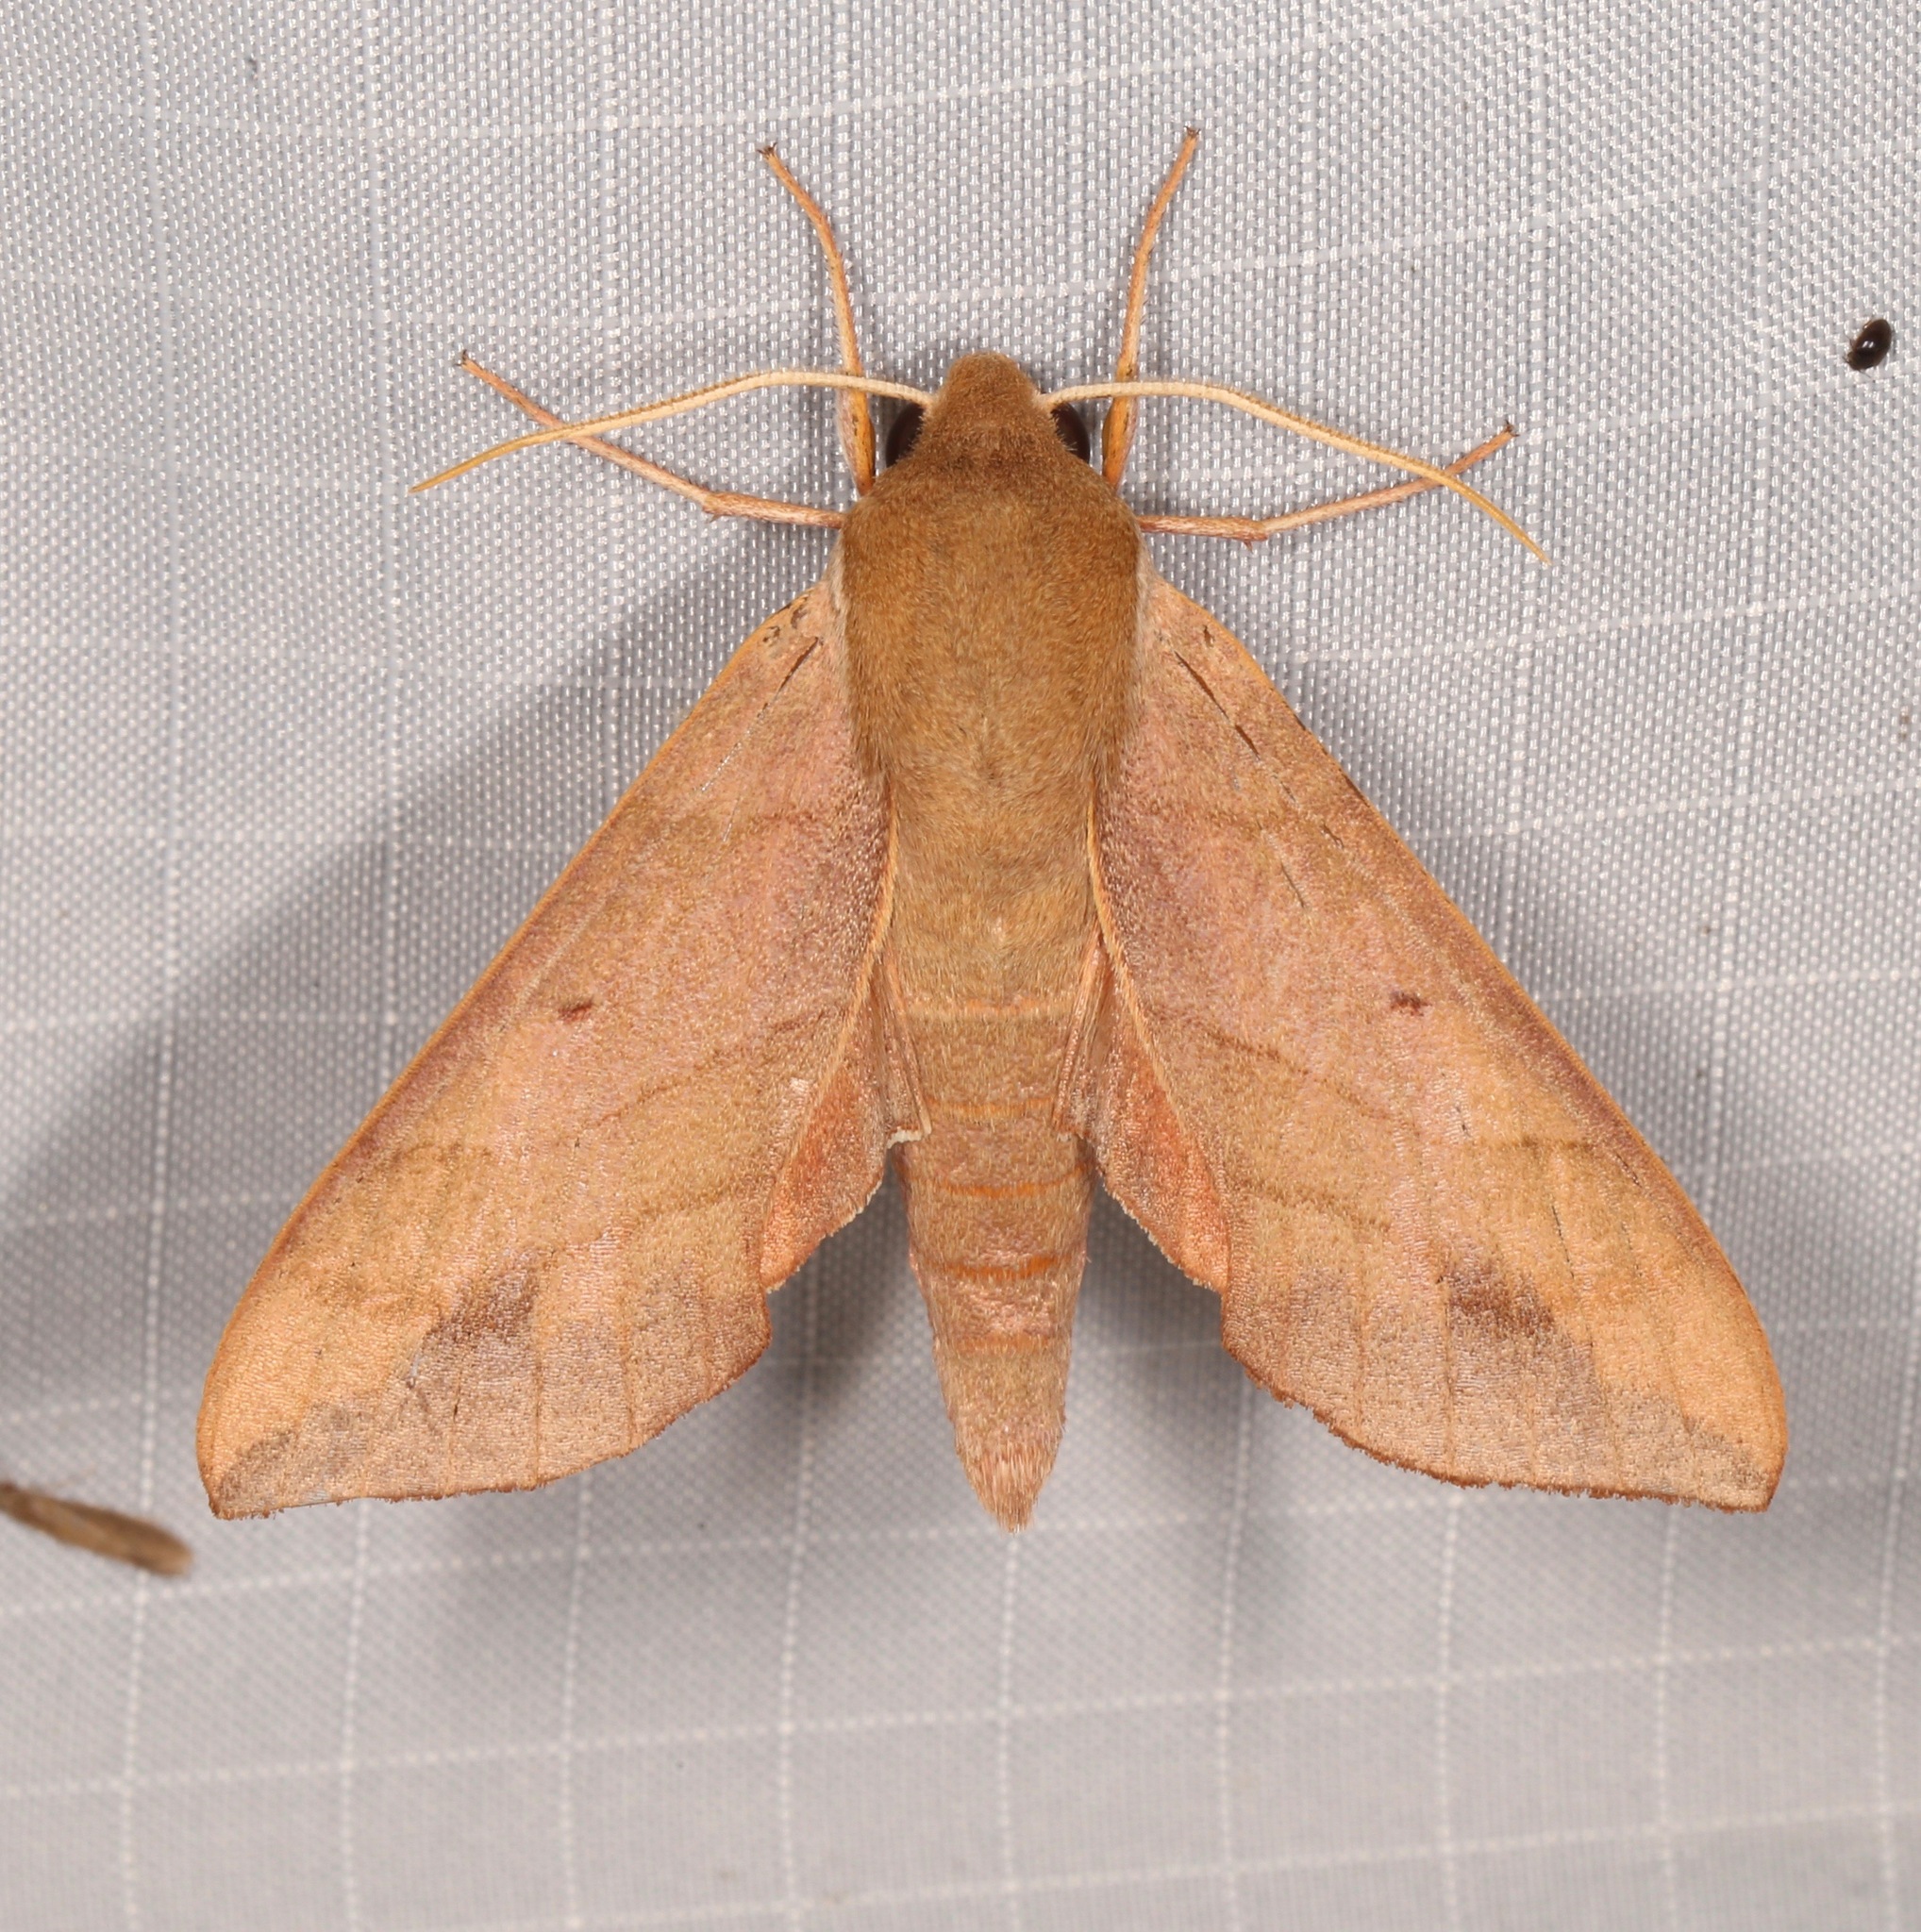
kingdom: Animalia
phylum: Arthropoda
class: Insecta
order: Lepidoptera
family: Sphingidae
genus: Darapsa
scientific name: Darapsa myron
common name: Hog sphinx
